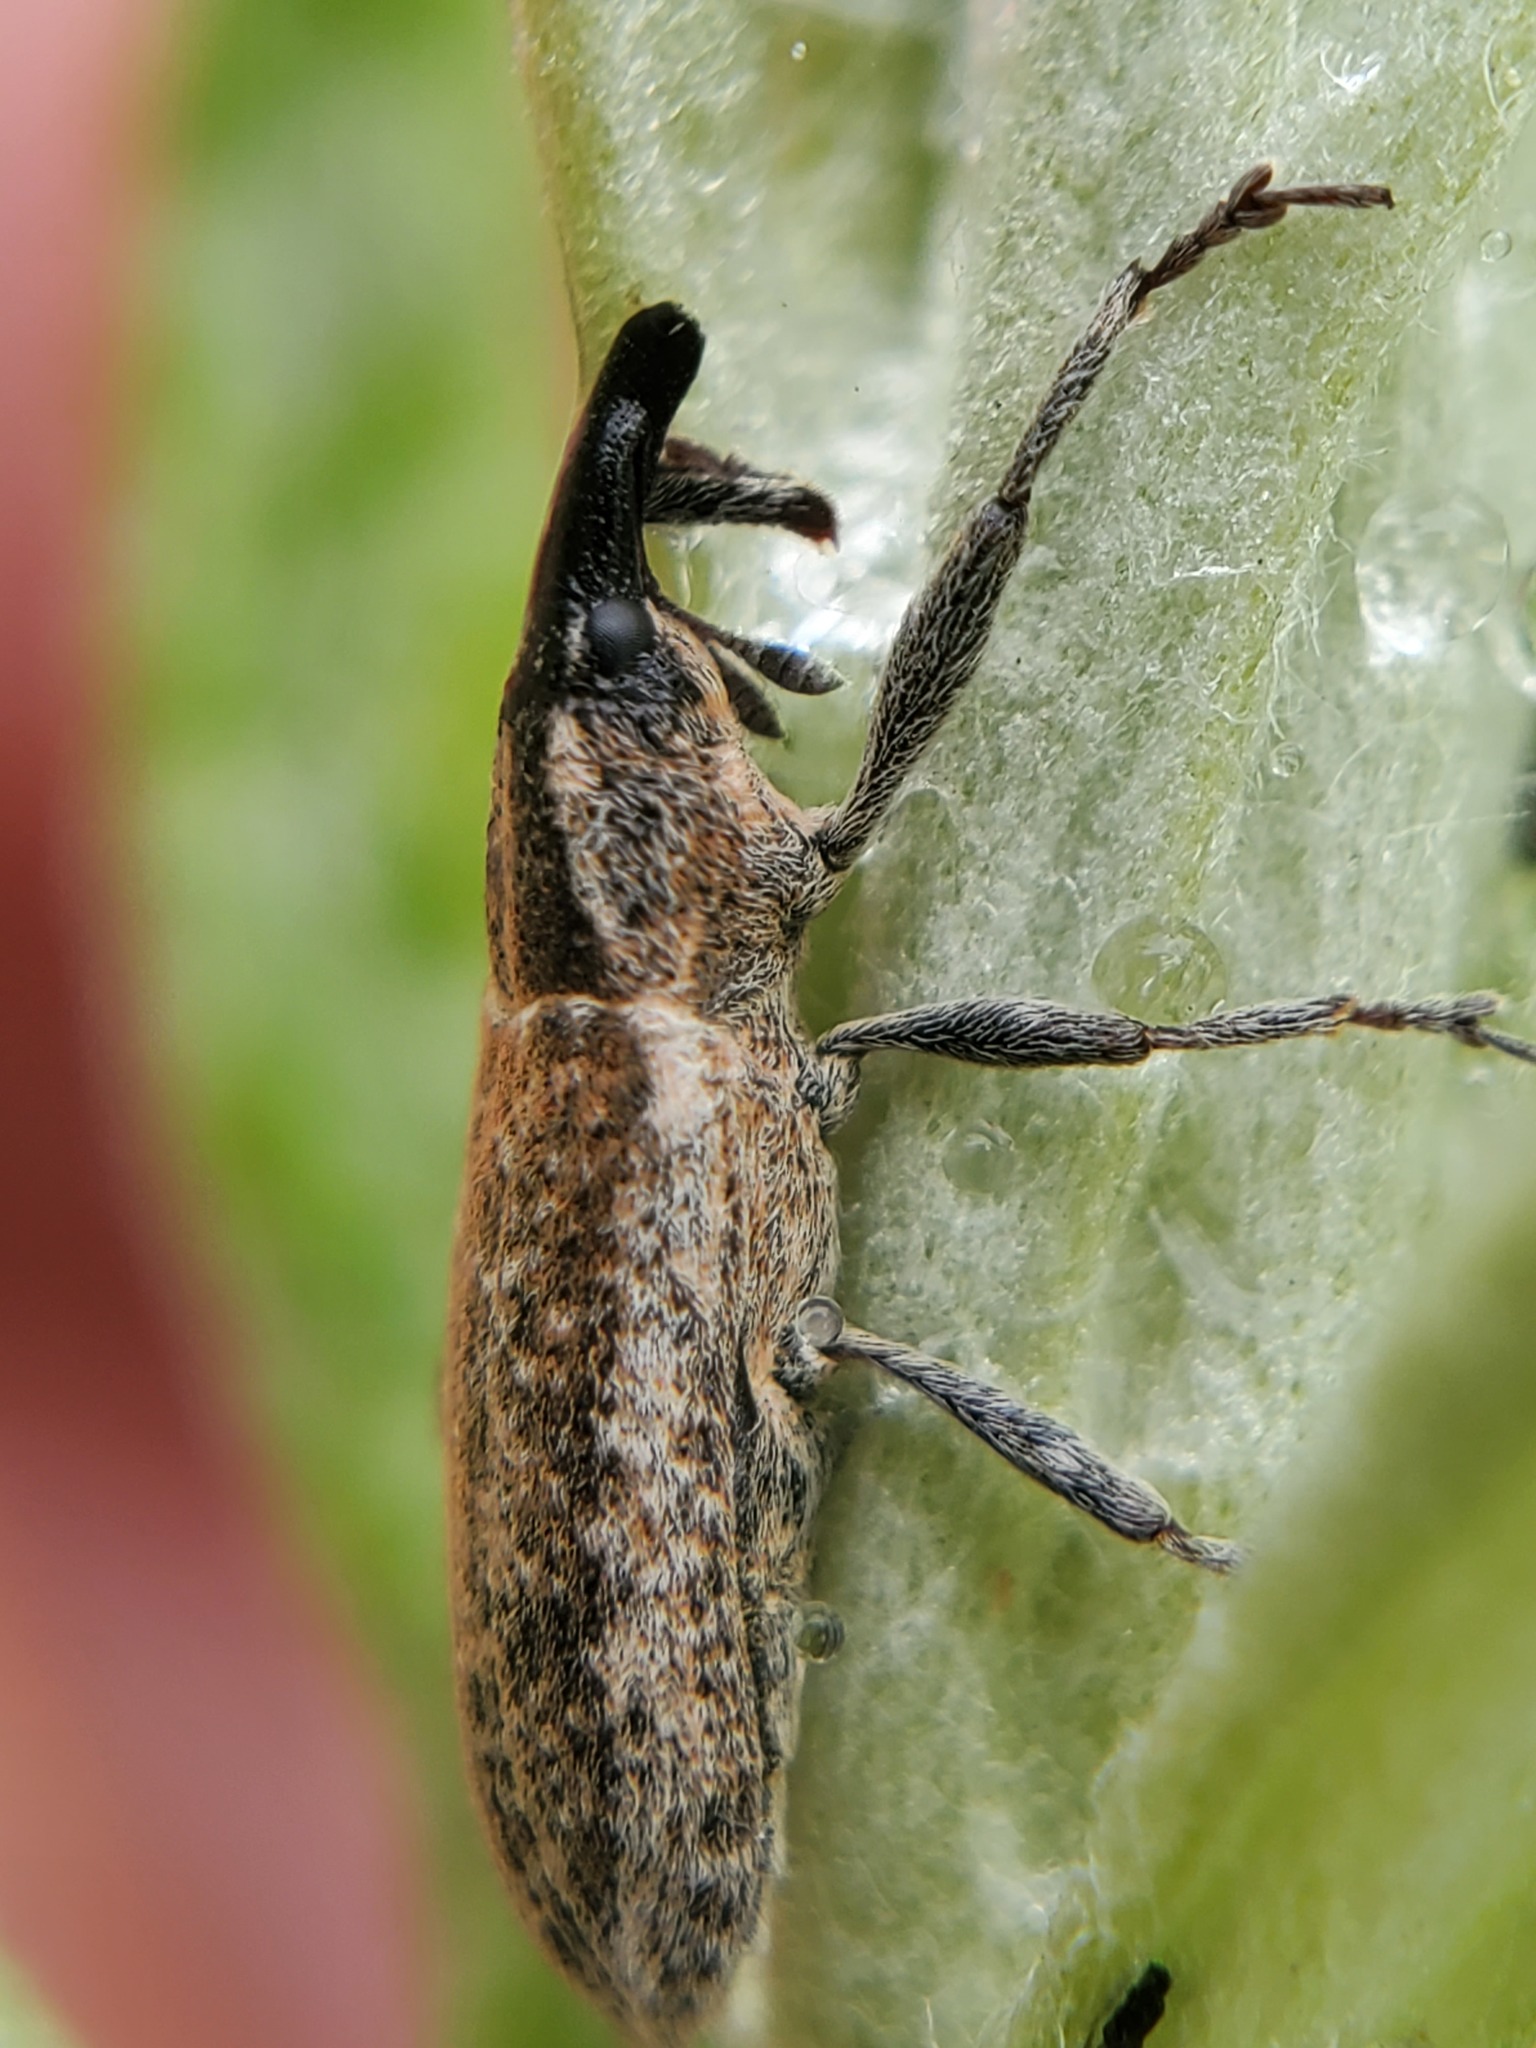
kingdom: Animalia
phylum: Arthropoda
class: Insecta
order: Coleoptera
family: Curculionidae
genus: Lixus
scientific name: Lixus perforatus
